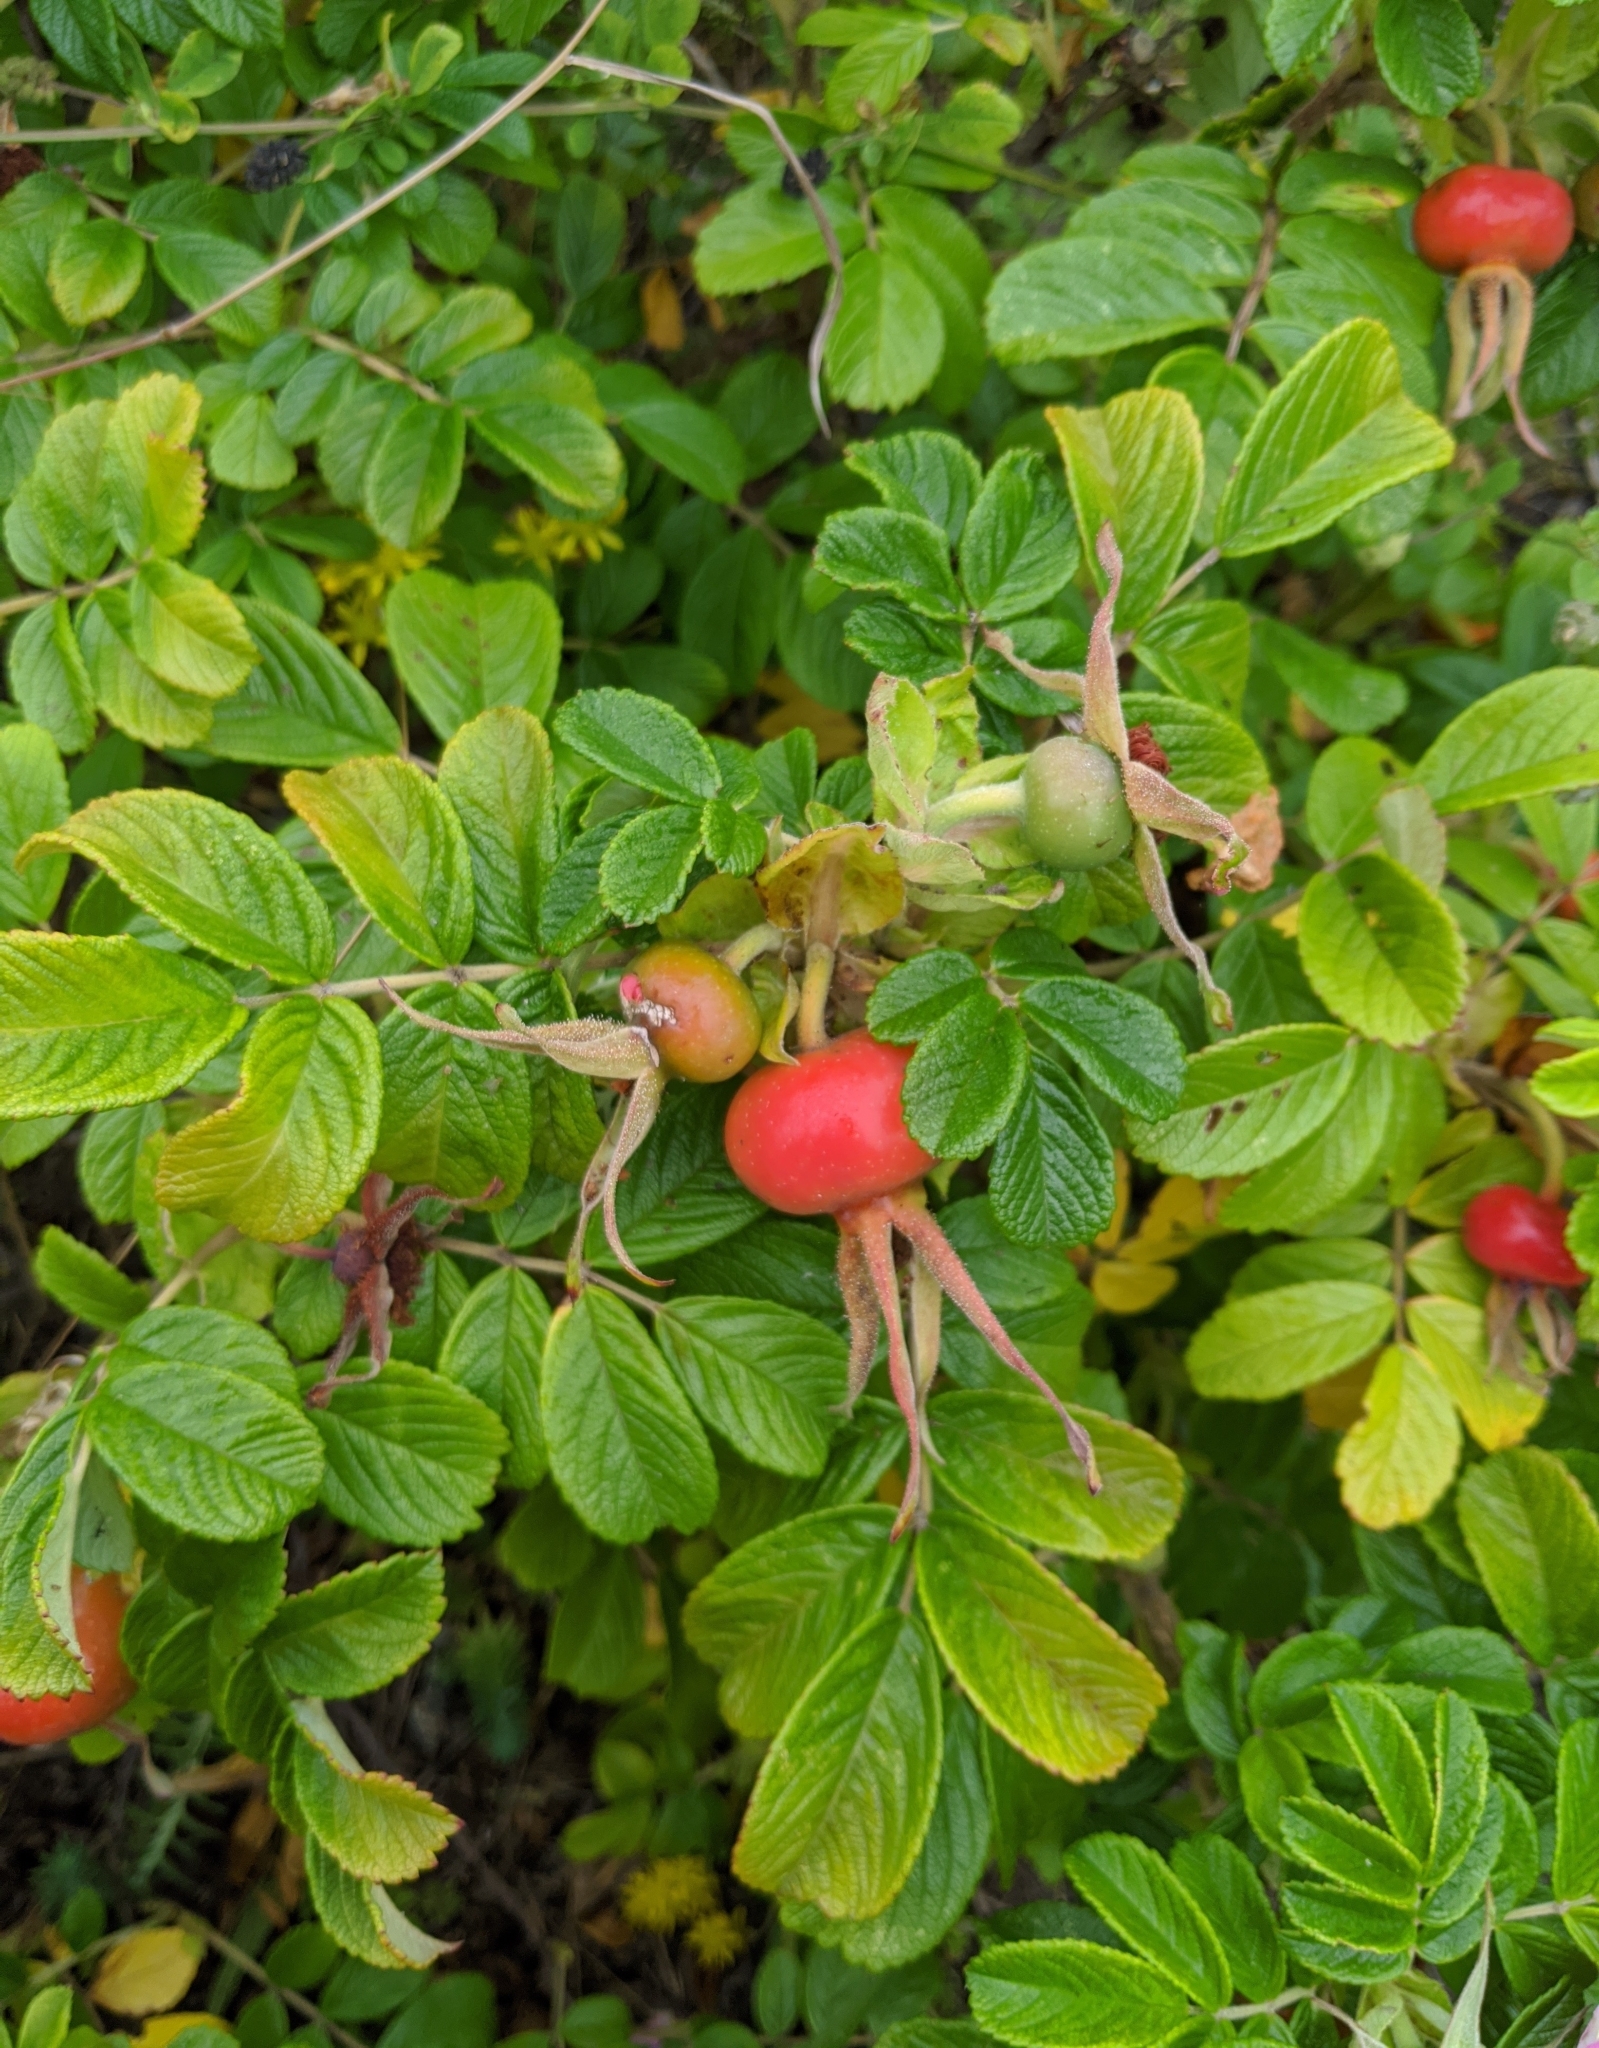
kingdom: Plantae
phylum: Tracheophyta
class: Magnoliopsida
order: Rosales
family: Rosaceae
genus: Rosa
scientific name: Rosa rugosa
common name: Japanese rose
